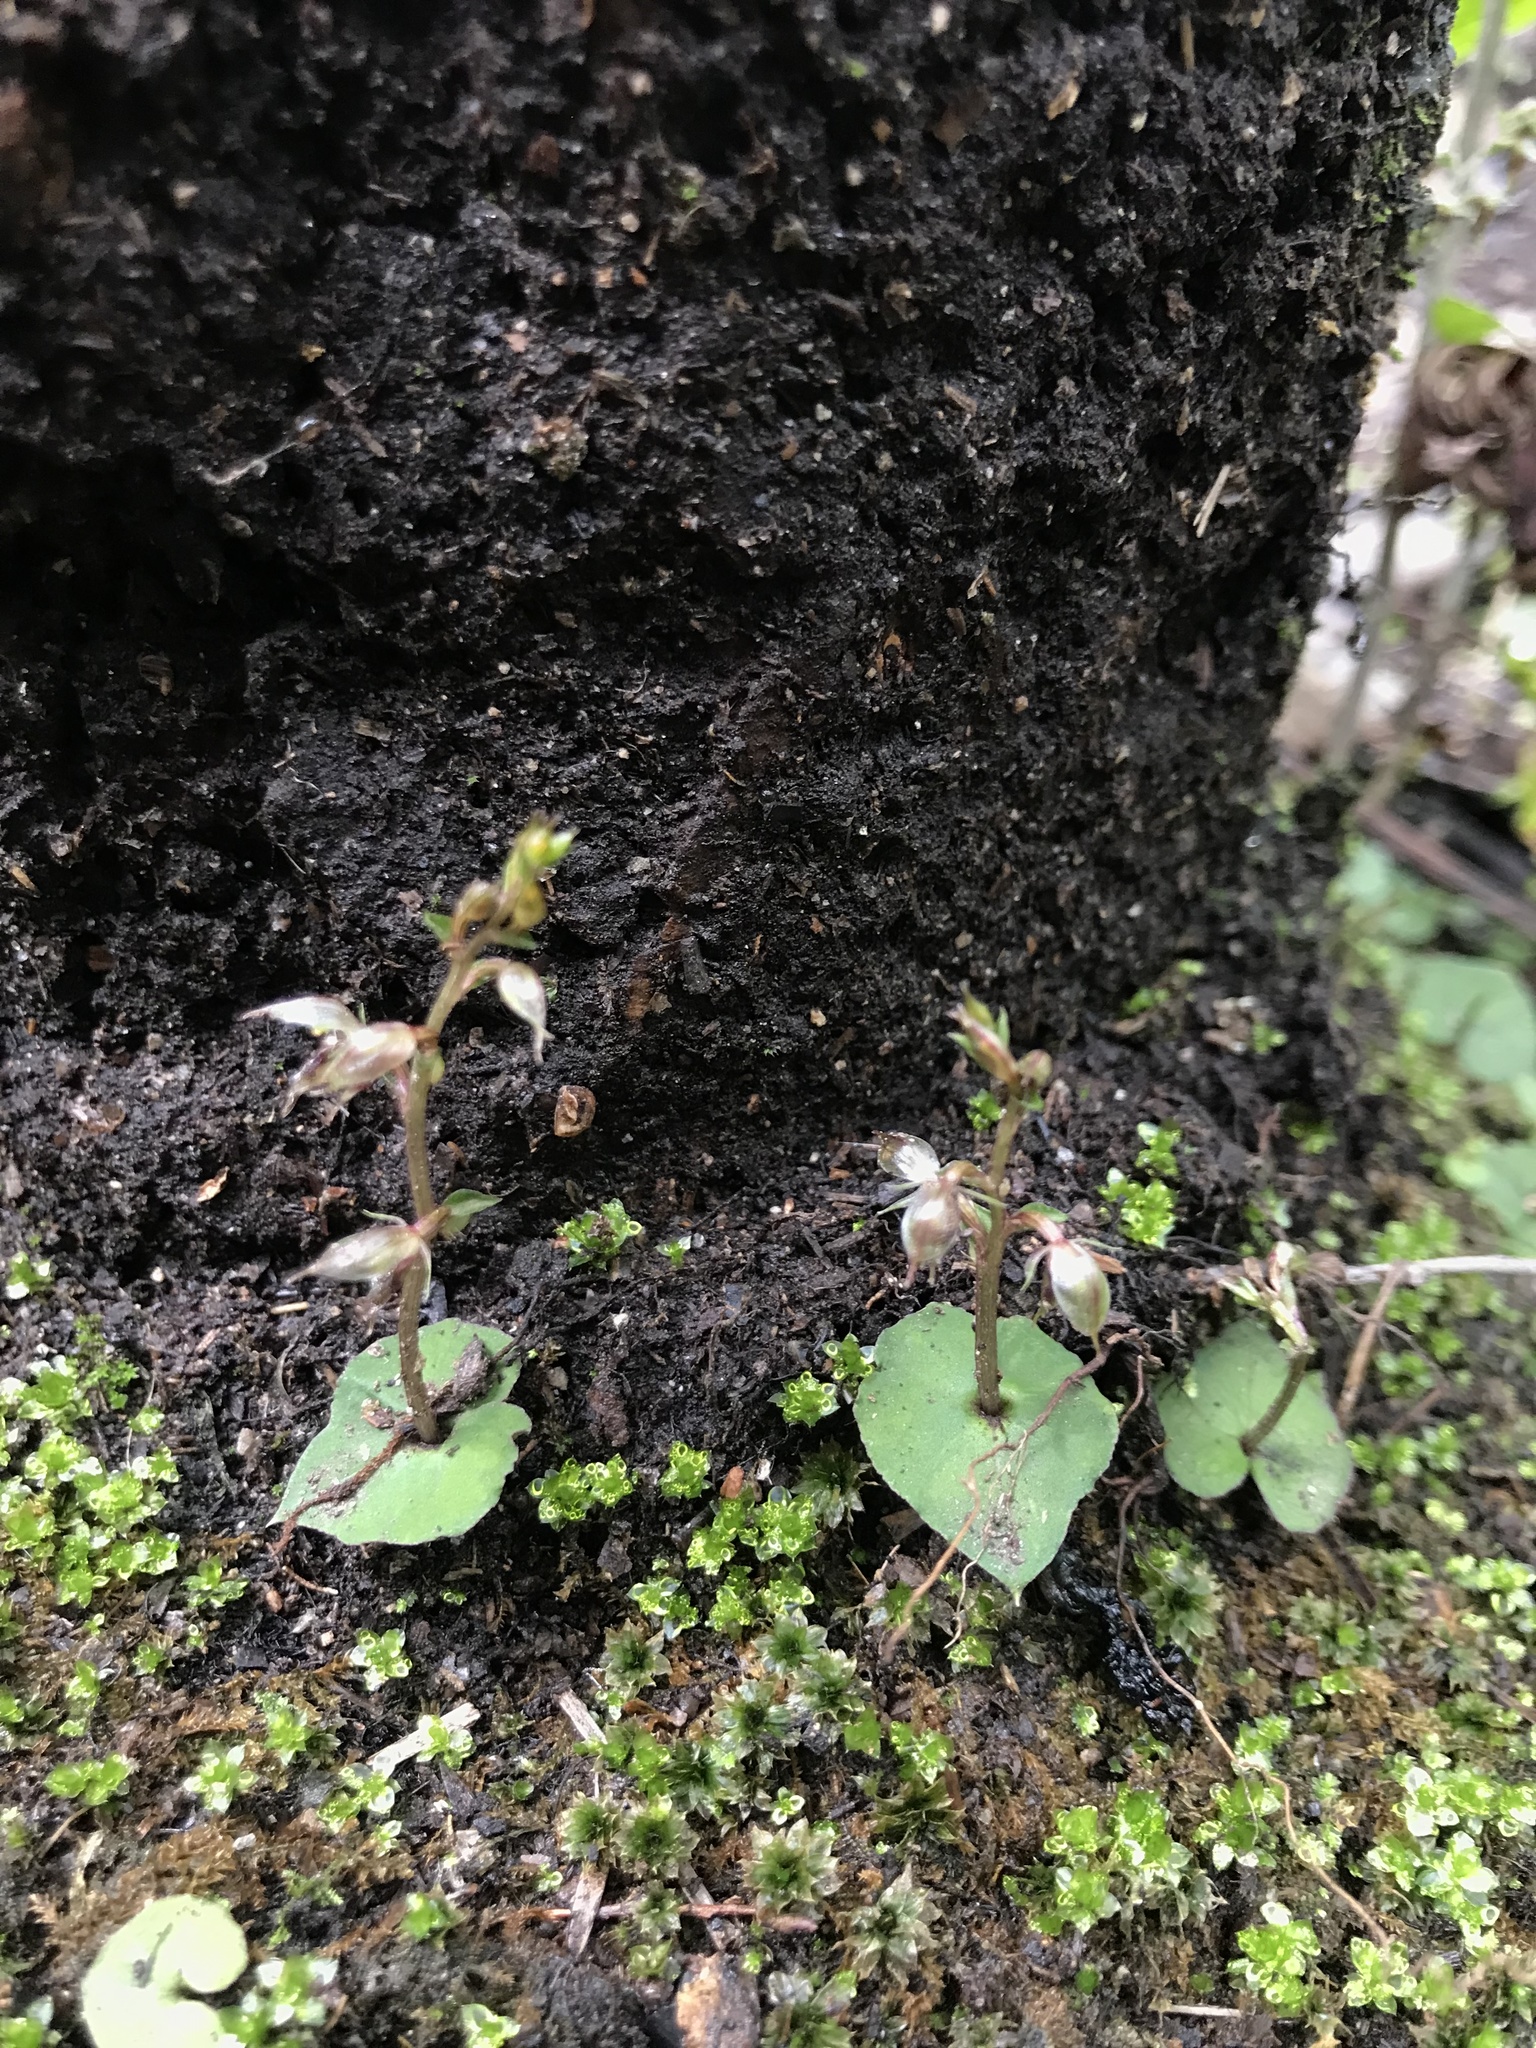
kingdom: Plantae
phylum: Tracheophyta
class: Liliopsida
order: Asparagales
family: Orchidaceae
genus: Acianthus
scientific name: Acianthus sinclairii
